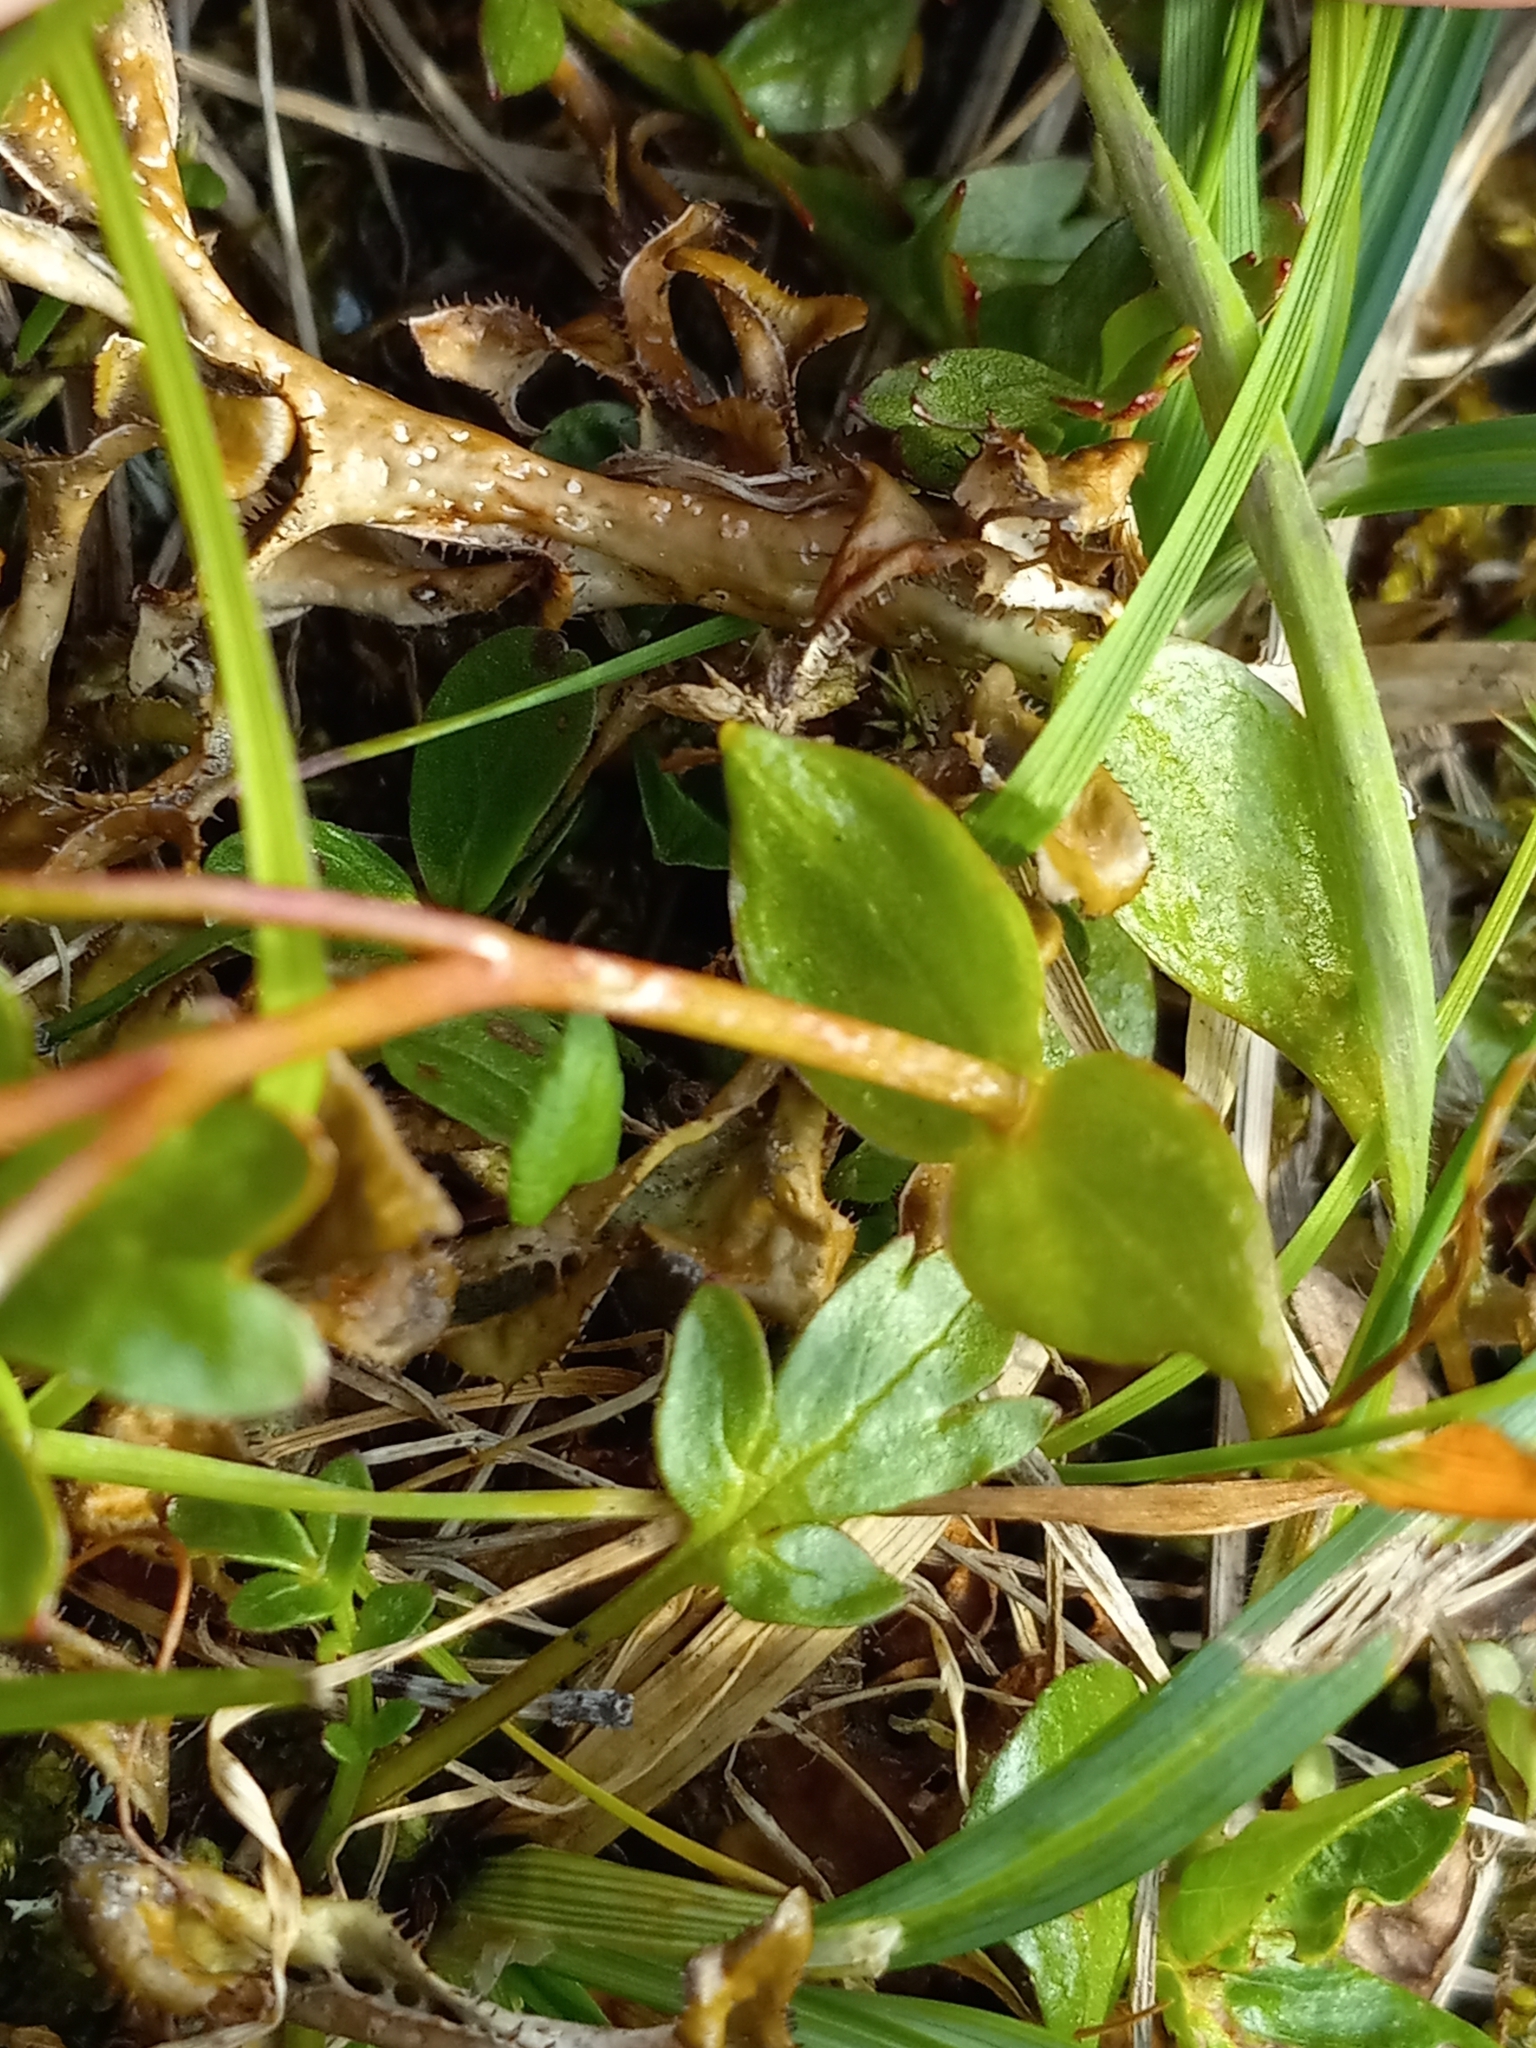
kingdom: Plantae
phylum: Tracheophyta
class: Magnoliopsida
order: Caryophyllales
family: Montiaceae
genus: Claytonia
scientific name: Claytonia sarmentosa
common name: Alaska spring beauty
